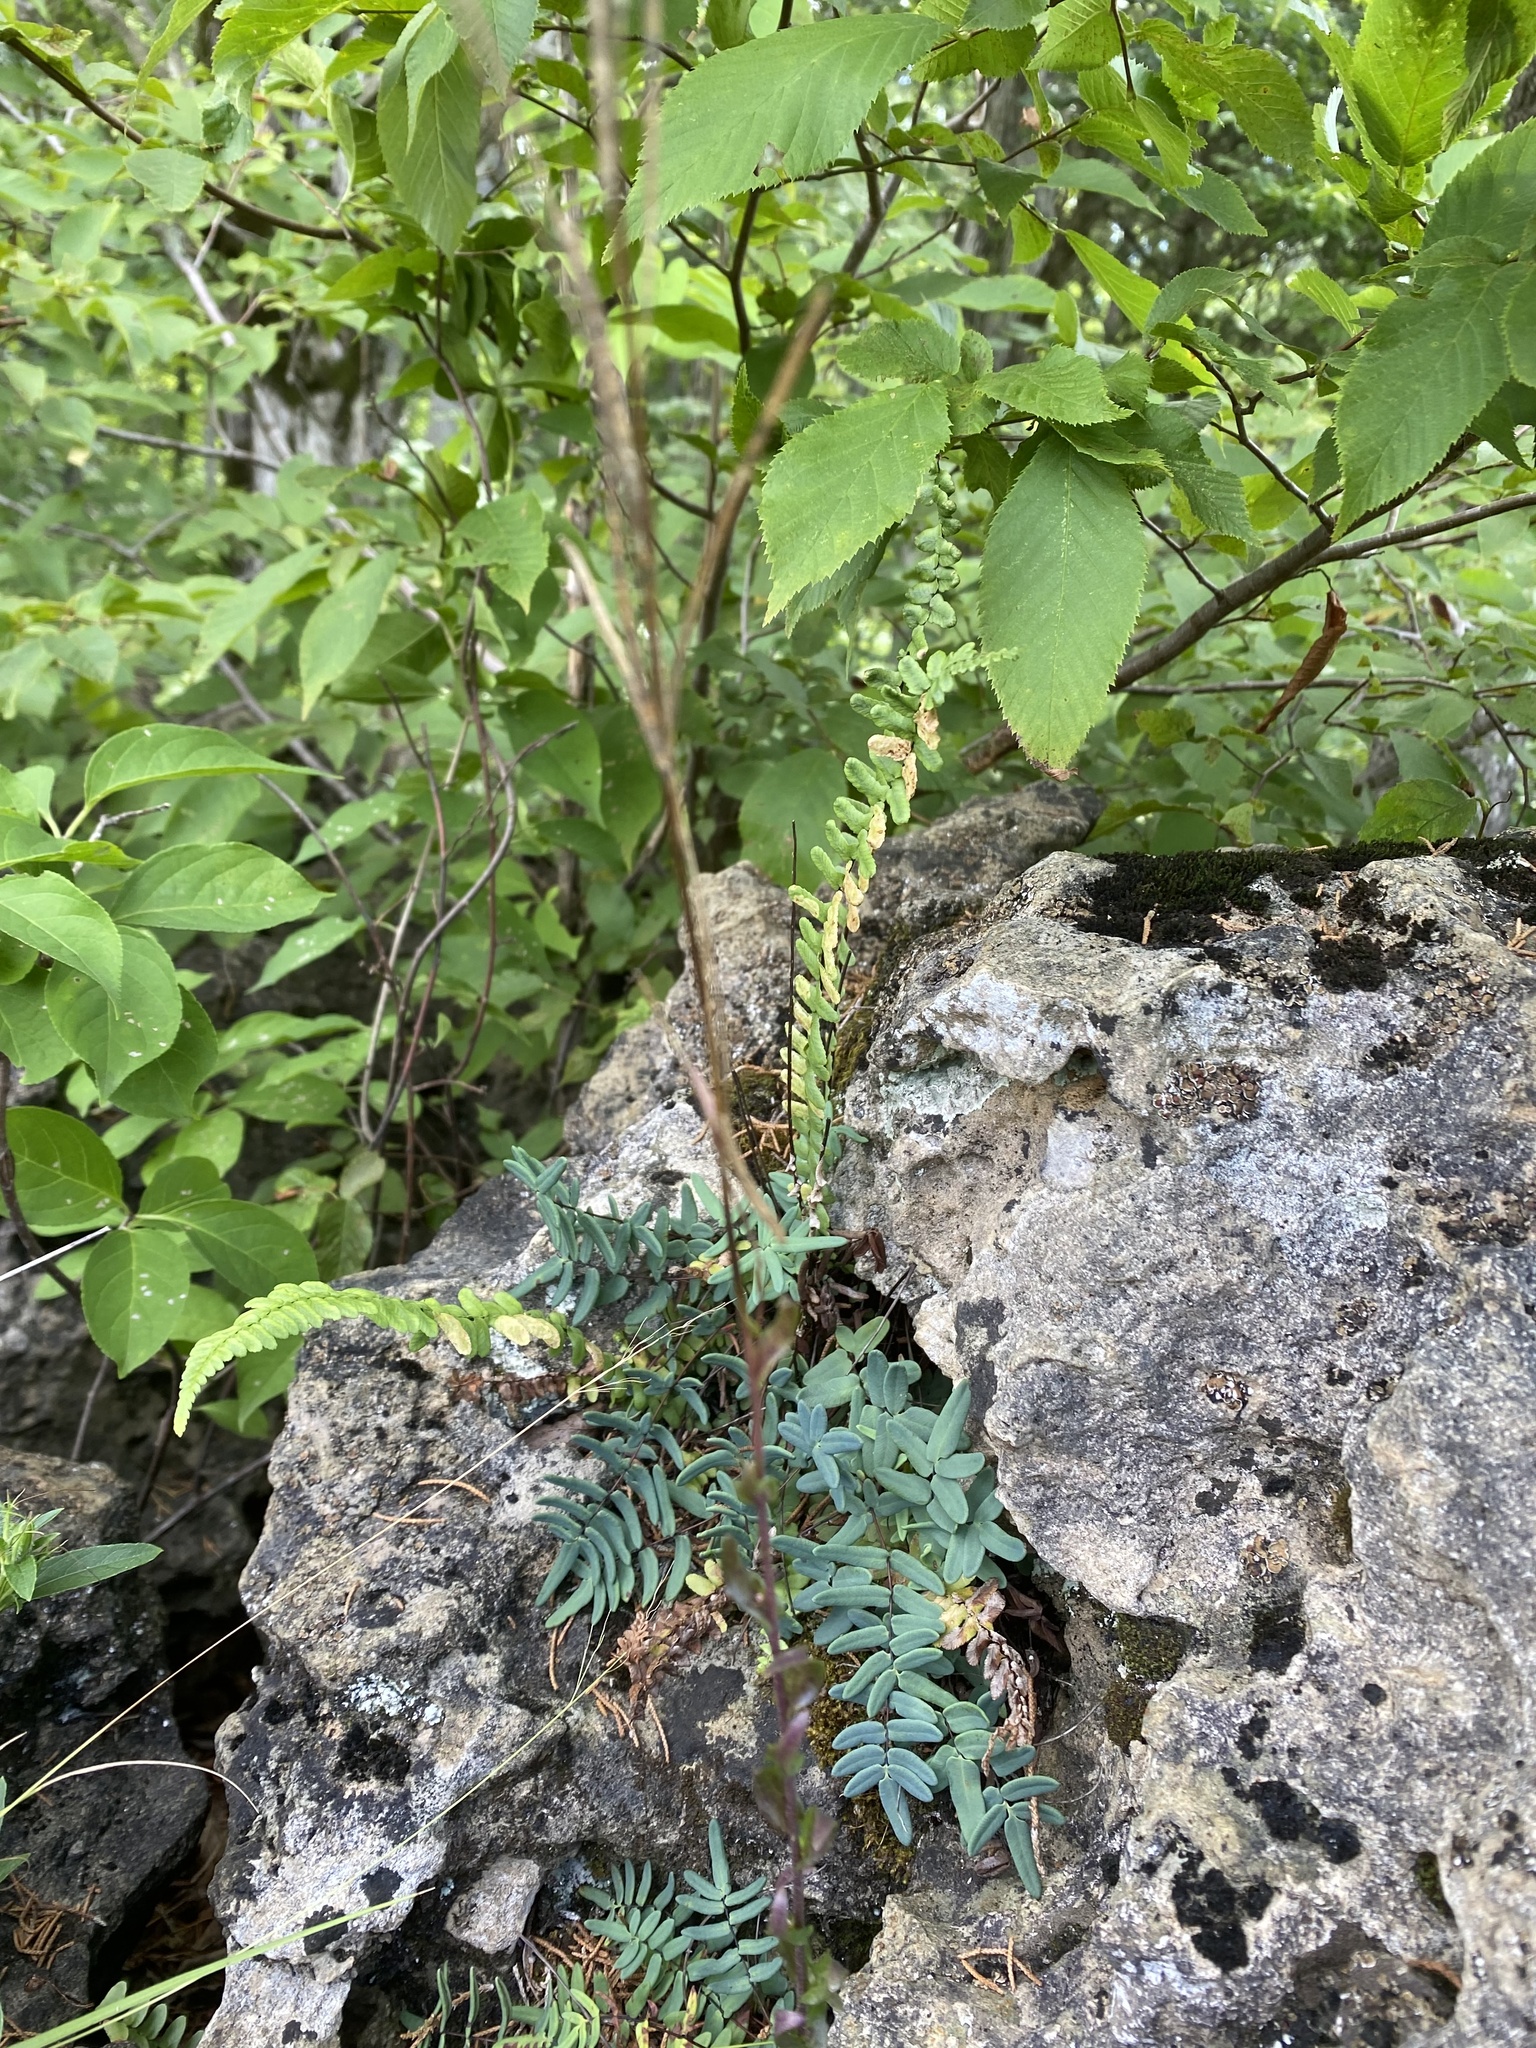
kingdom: Plantae
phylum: Tracheophyta
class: Polypodiopsida
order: Polypodiales
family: Pteridaceae
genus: Pellaea
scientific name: Pellaea glabella
